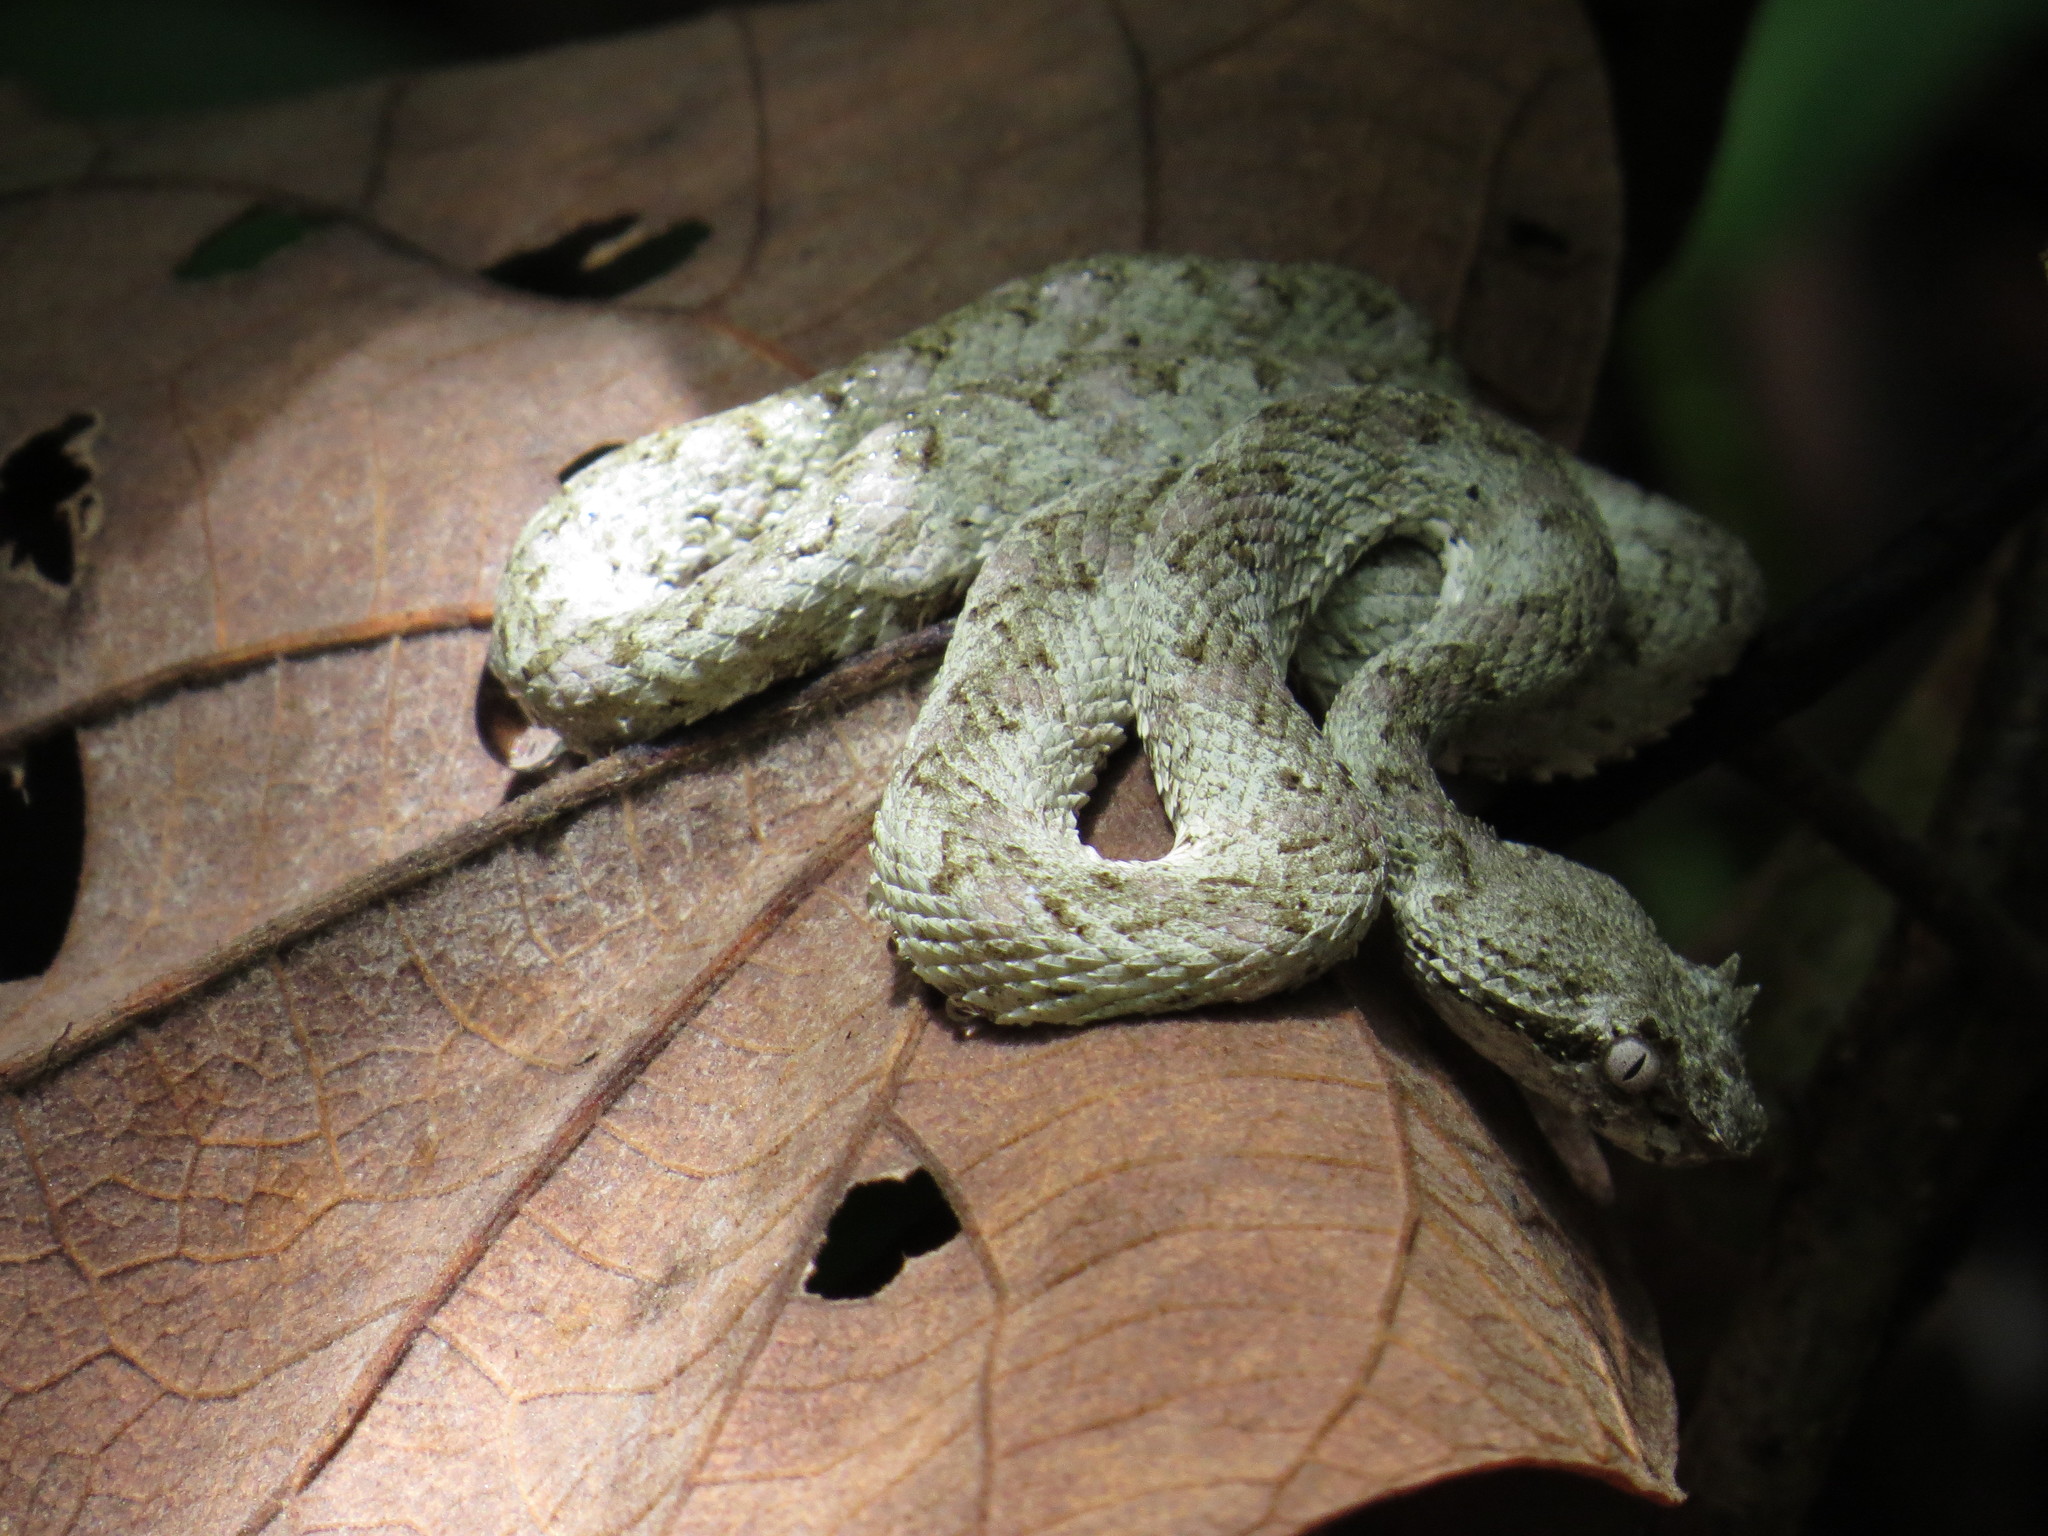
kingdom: Animalia
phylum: Chordata
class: Squamata
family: Viperidae
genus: Bothriechis
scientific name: Bothriechis schlegelii
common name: Eyelash viper
